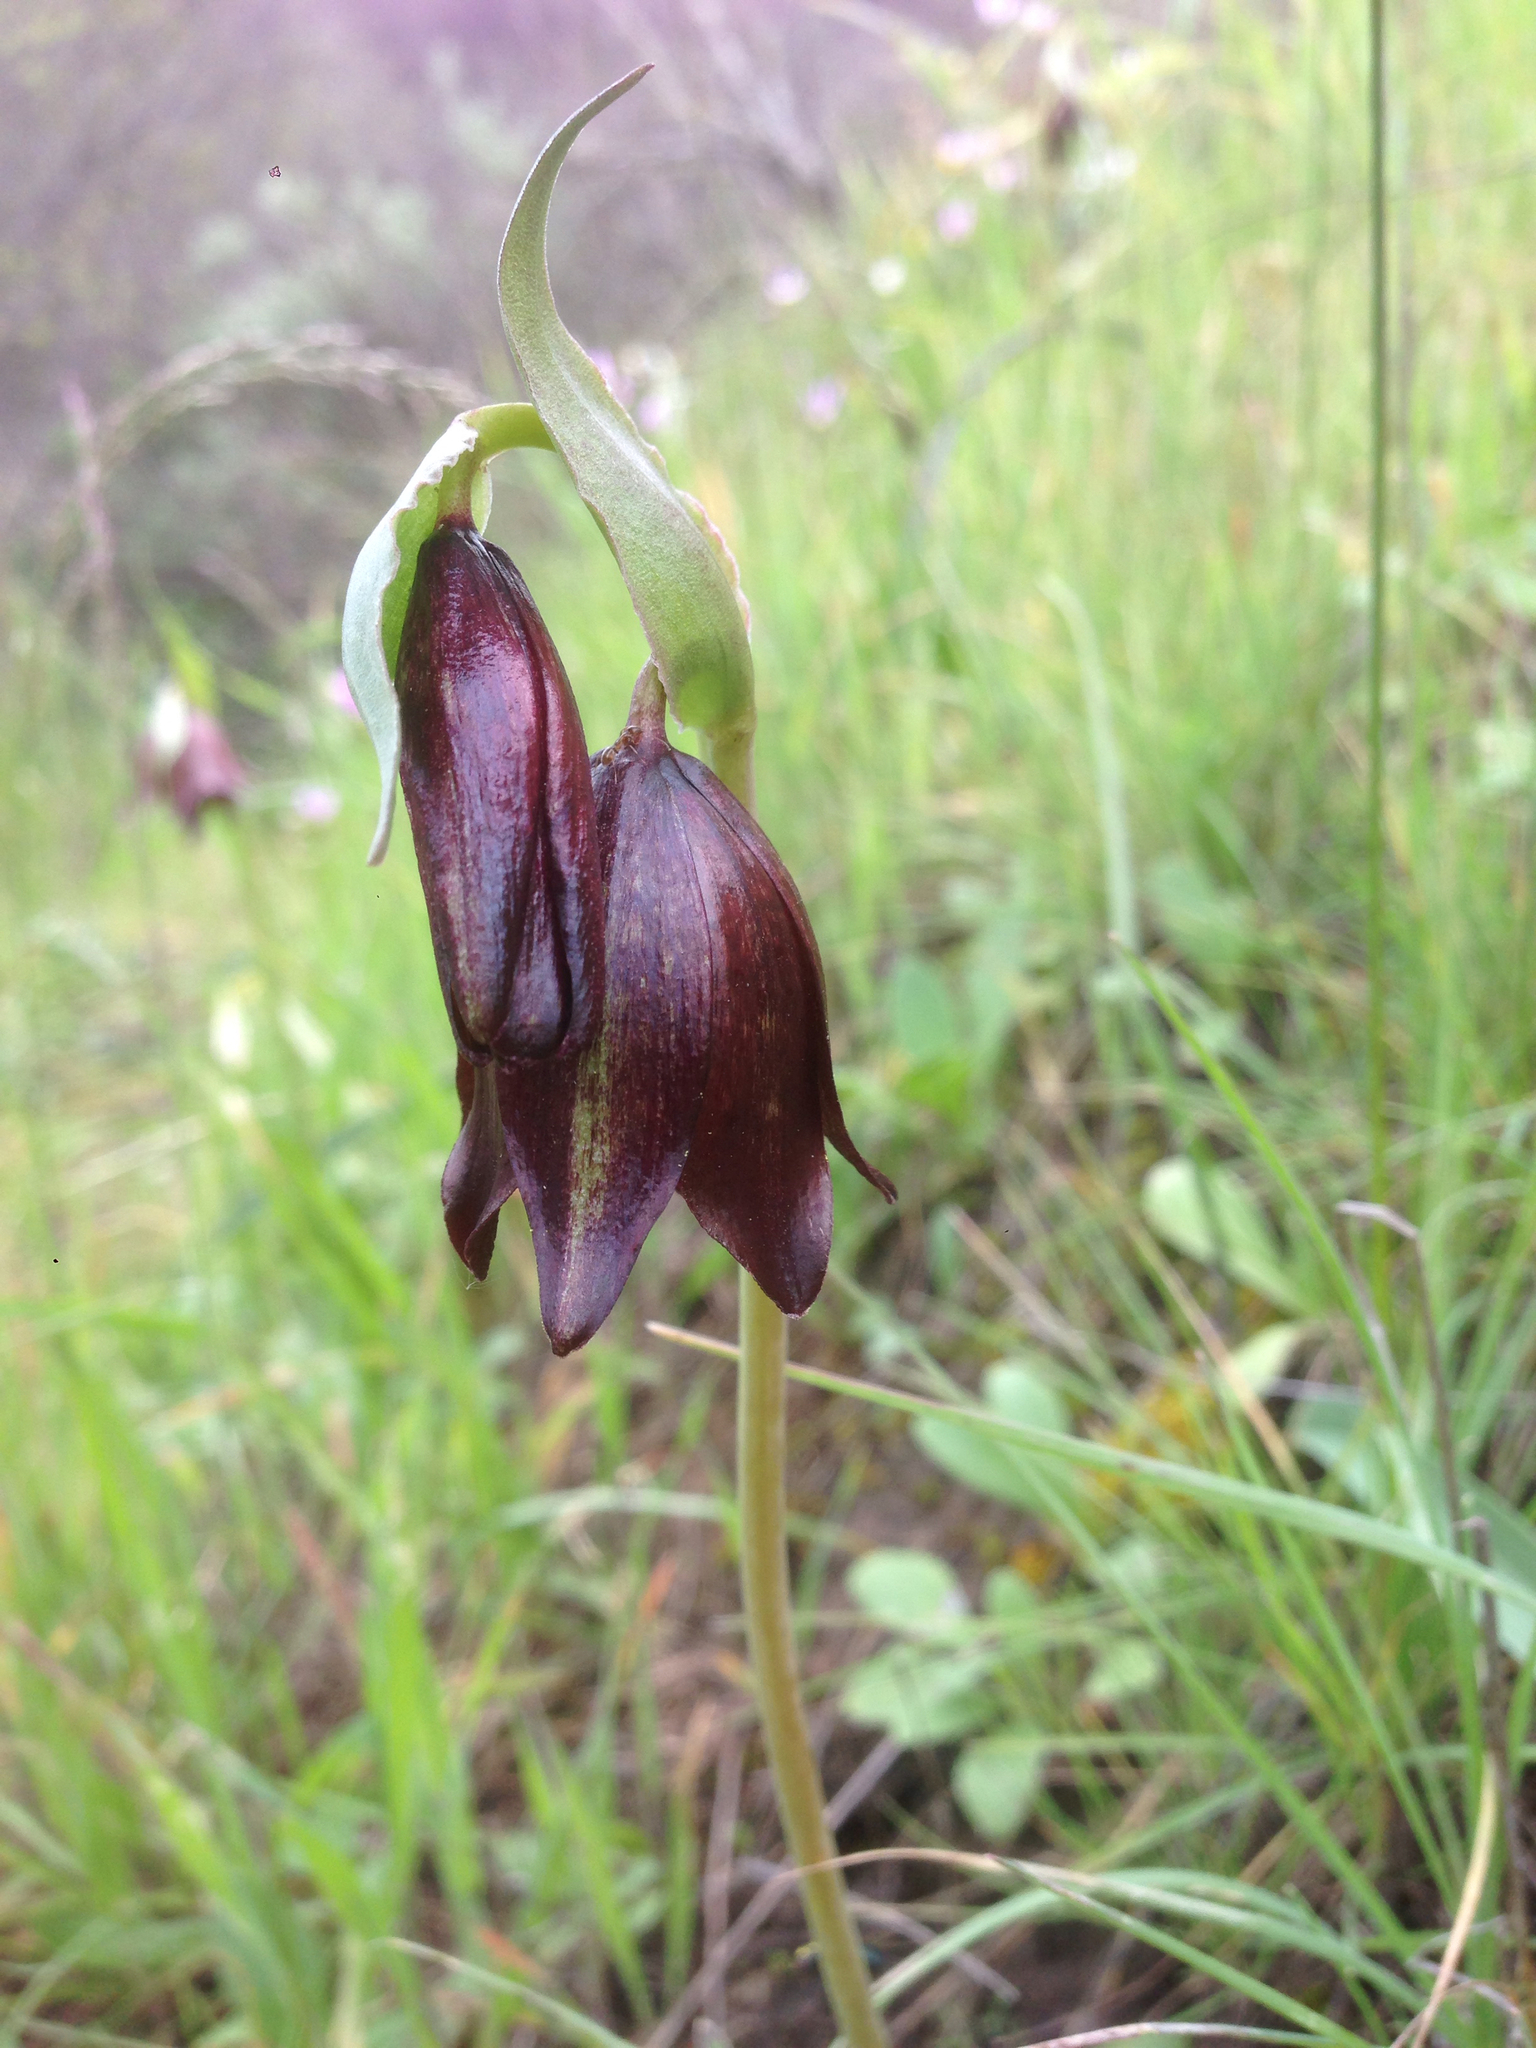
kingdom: Plantae
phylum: Tracheophyta
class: Liliopsida
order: Liliales
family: Liliaceae
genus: Fritillaria
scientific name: Fritillaria biflora
